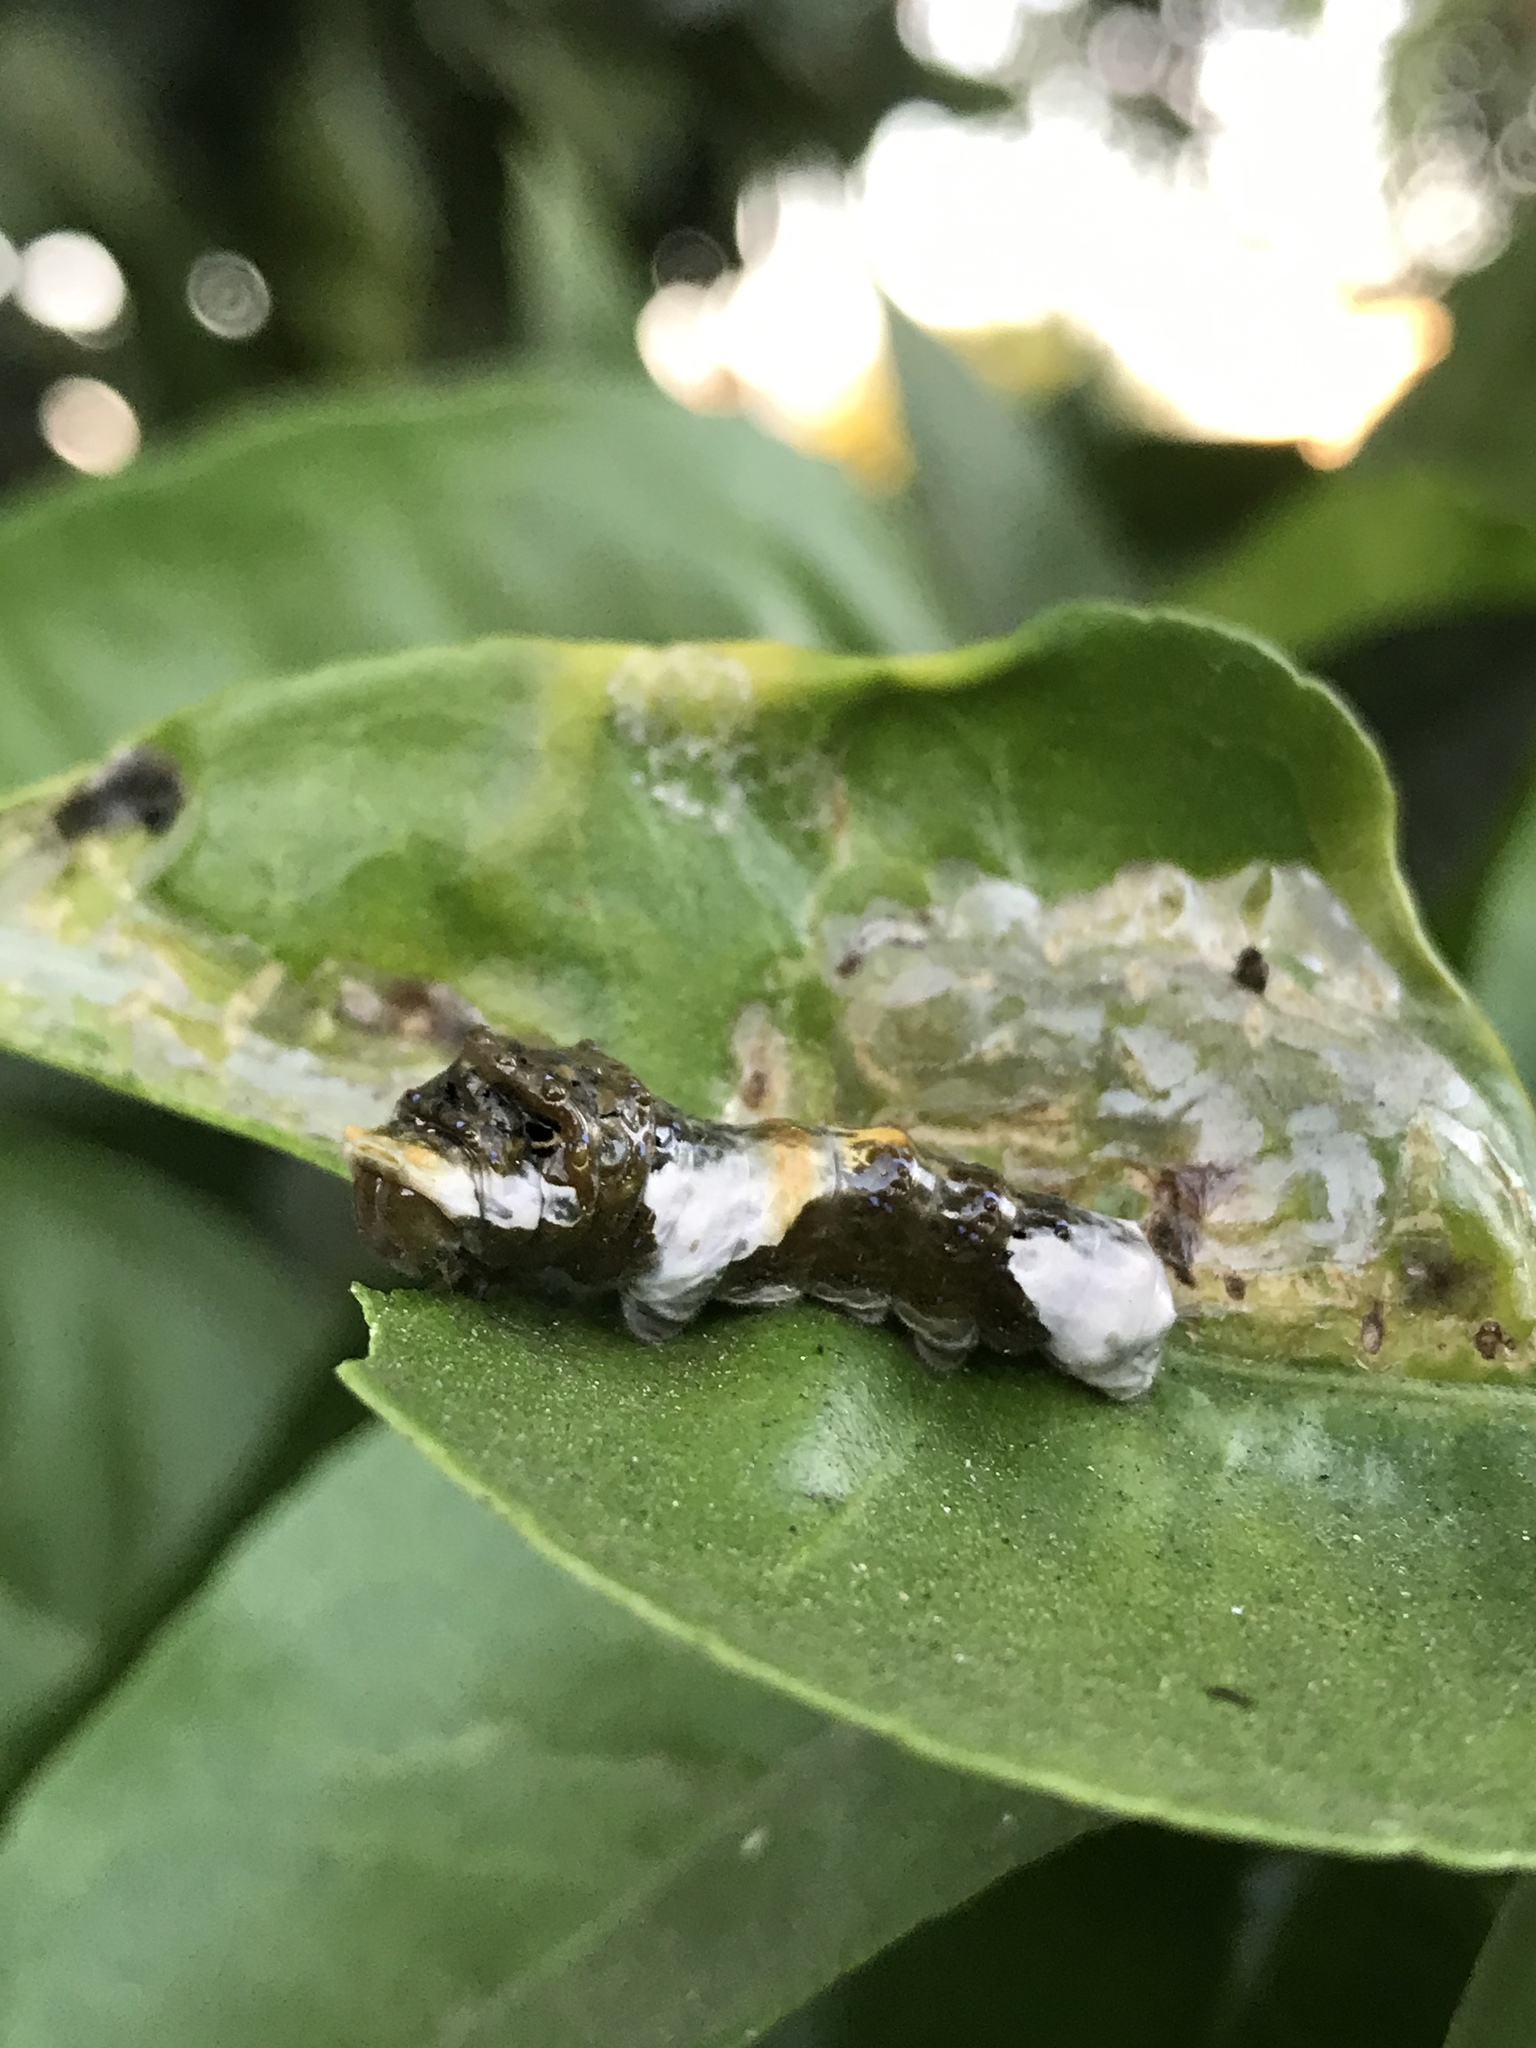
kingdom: Animalia
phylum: Arthropoda
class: Insecta
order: Lepidoptera
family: Papilionidae
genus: Papilio
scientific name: Papilio rumiko
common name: Western giant swallowtail
